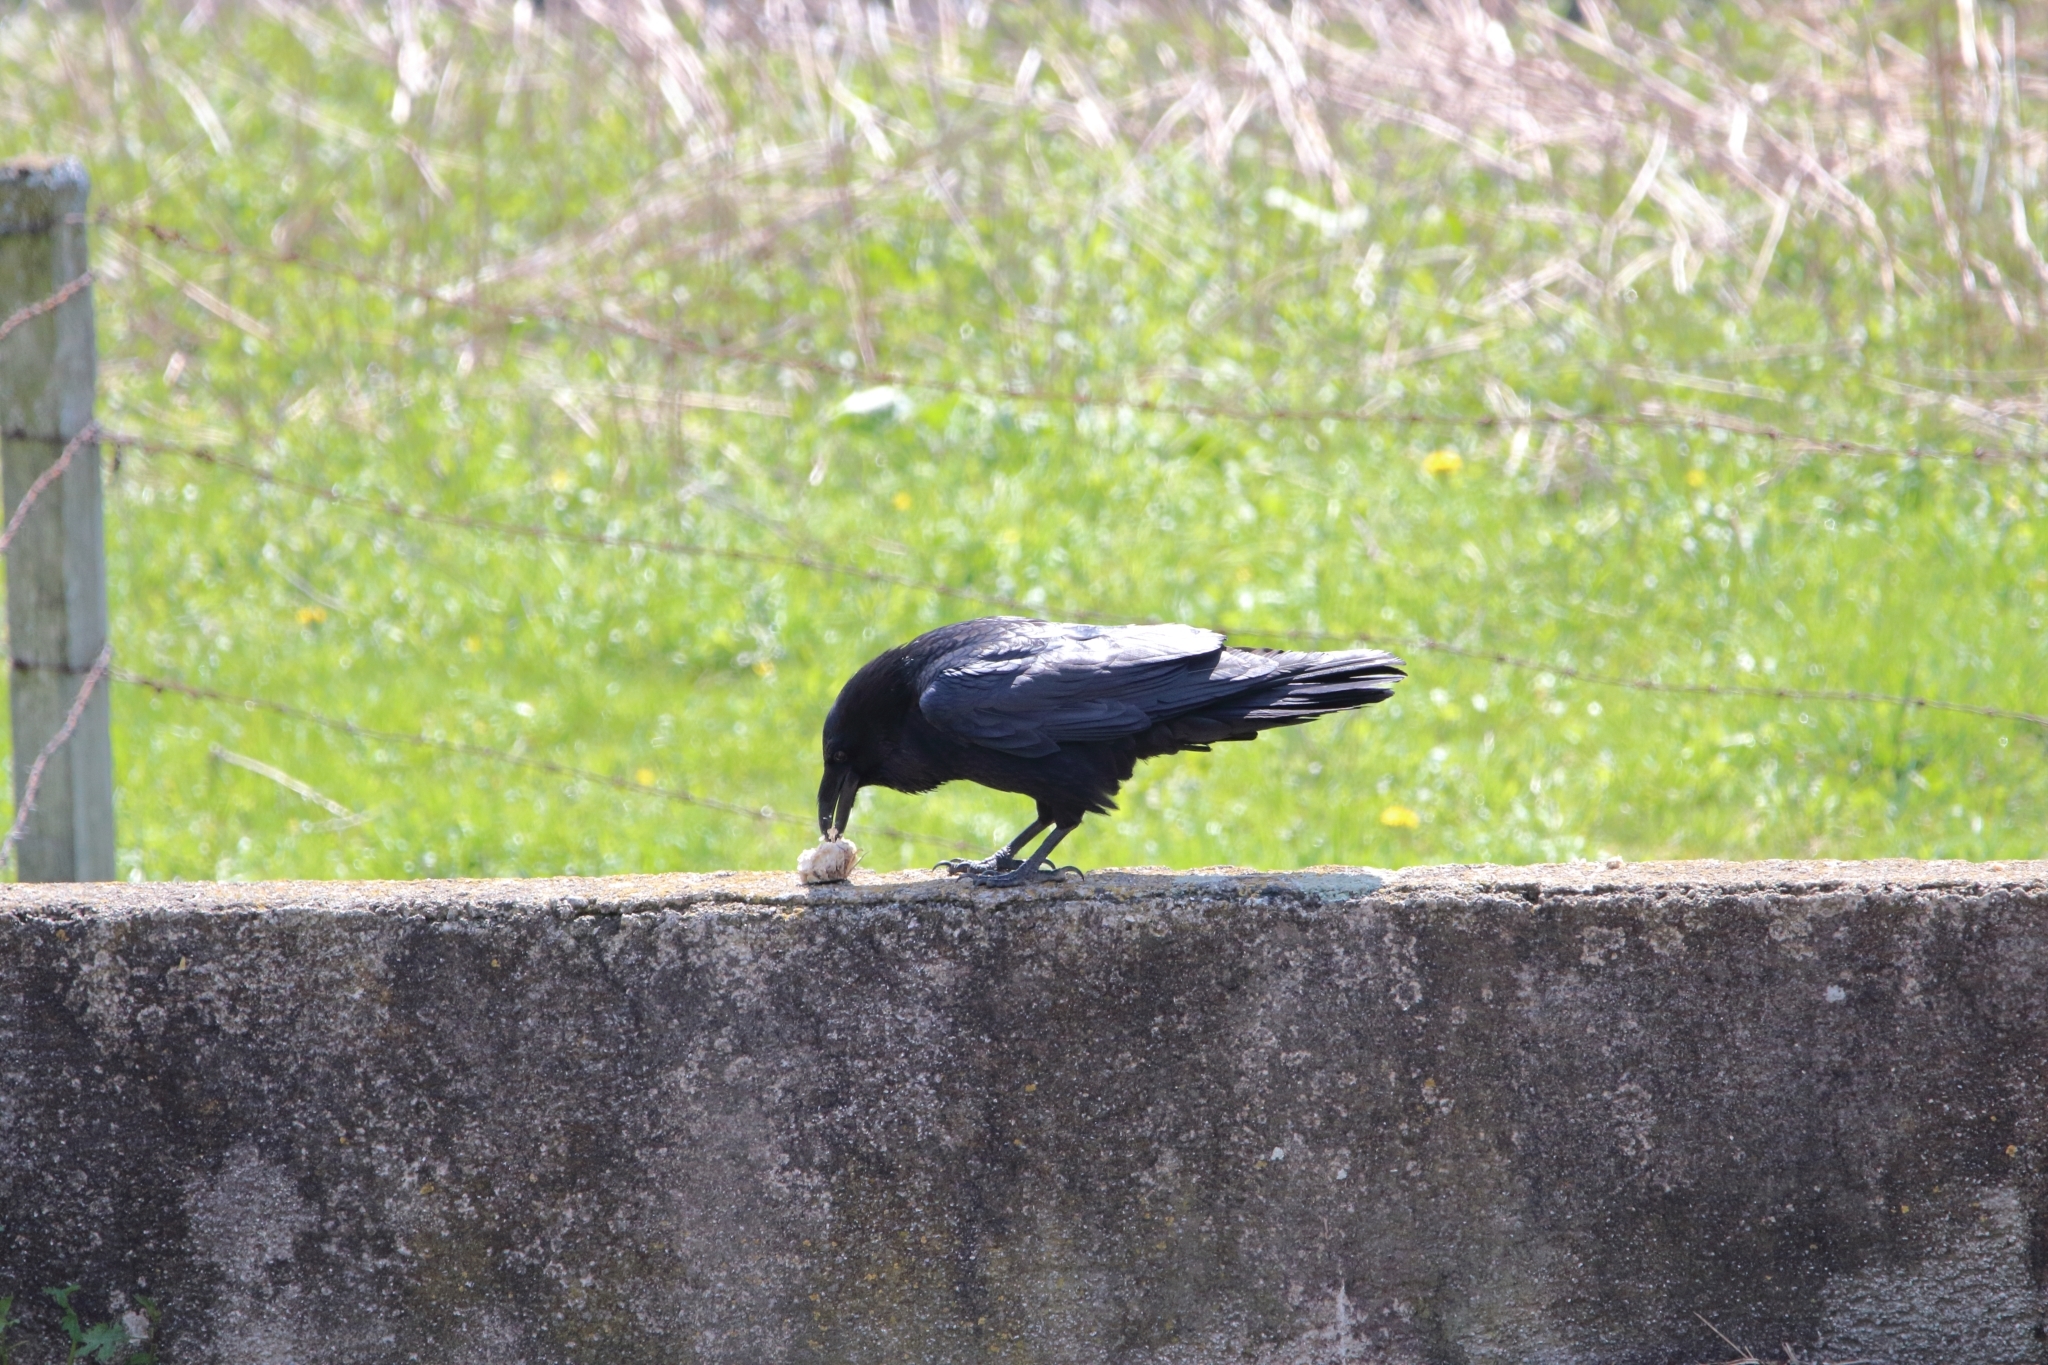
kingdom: Animalia
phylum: Chordata
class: Aves
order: Passeriformes
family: Corvidae
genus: Corvus
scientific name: Corvus corone
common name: Carrion crow
